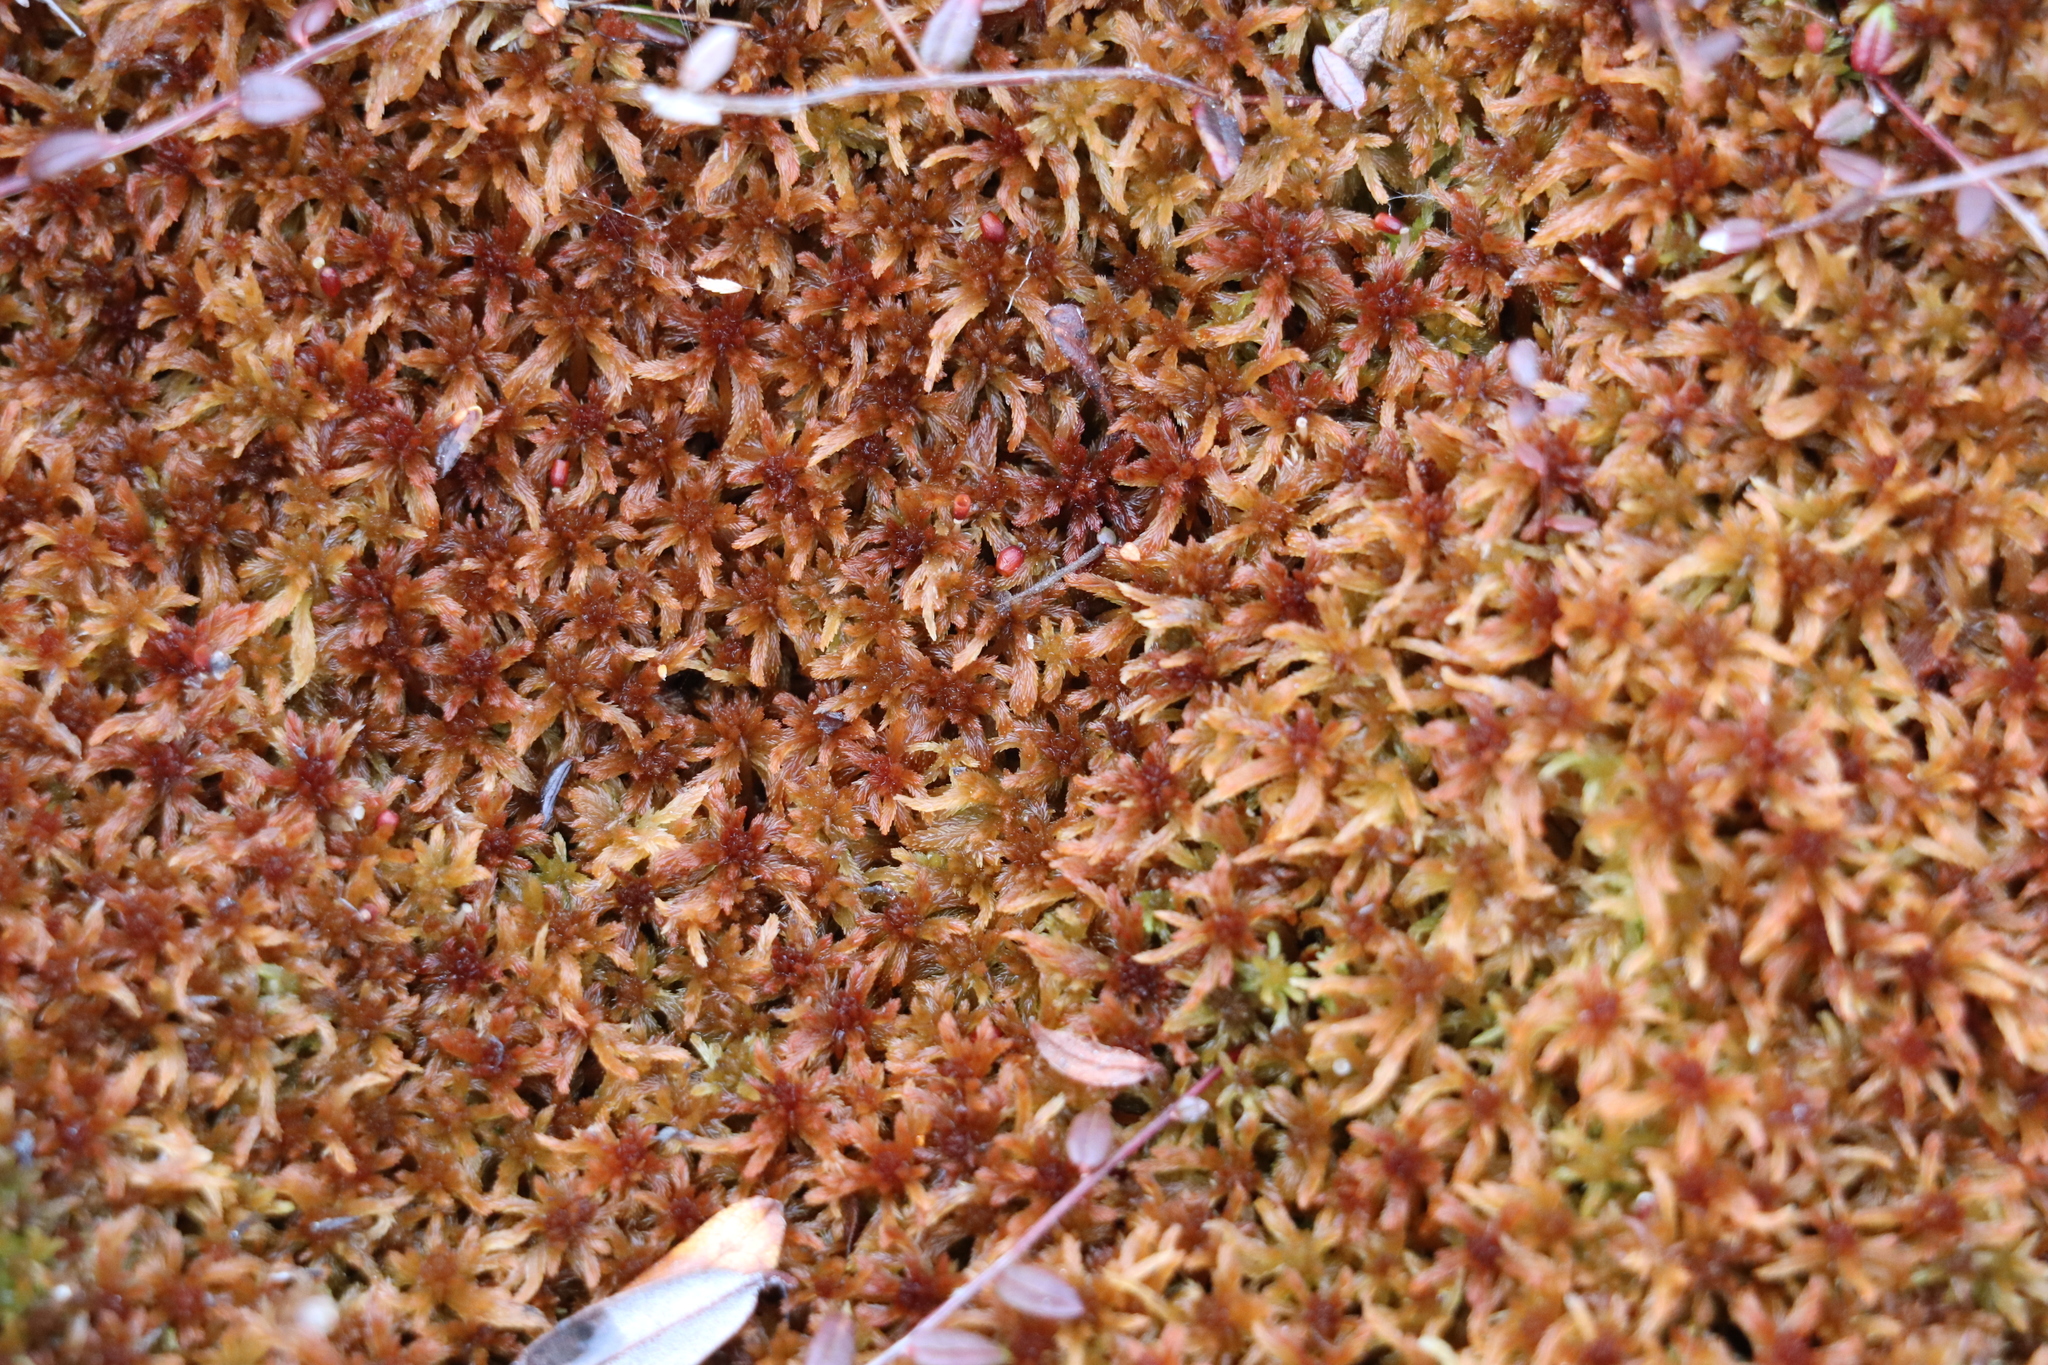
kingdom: Plantae
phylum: Bryophyta
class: Sphagnopsida
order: Sphagnales
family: Sphagnaceae
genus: Sphagnum
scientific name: Sphagnum fuscum
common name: Brown peat moss
